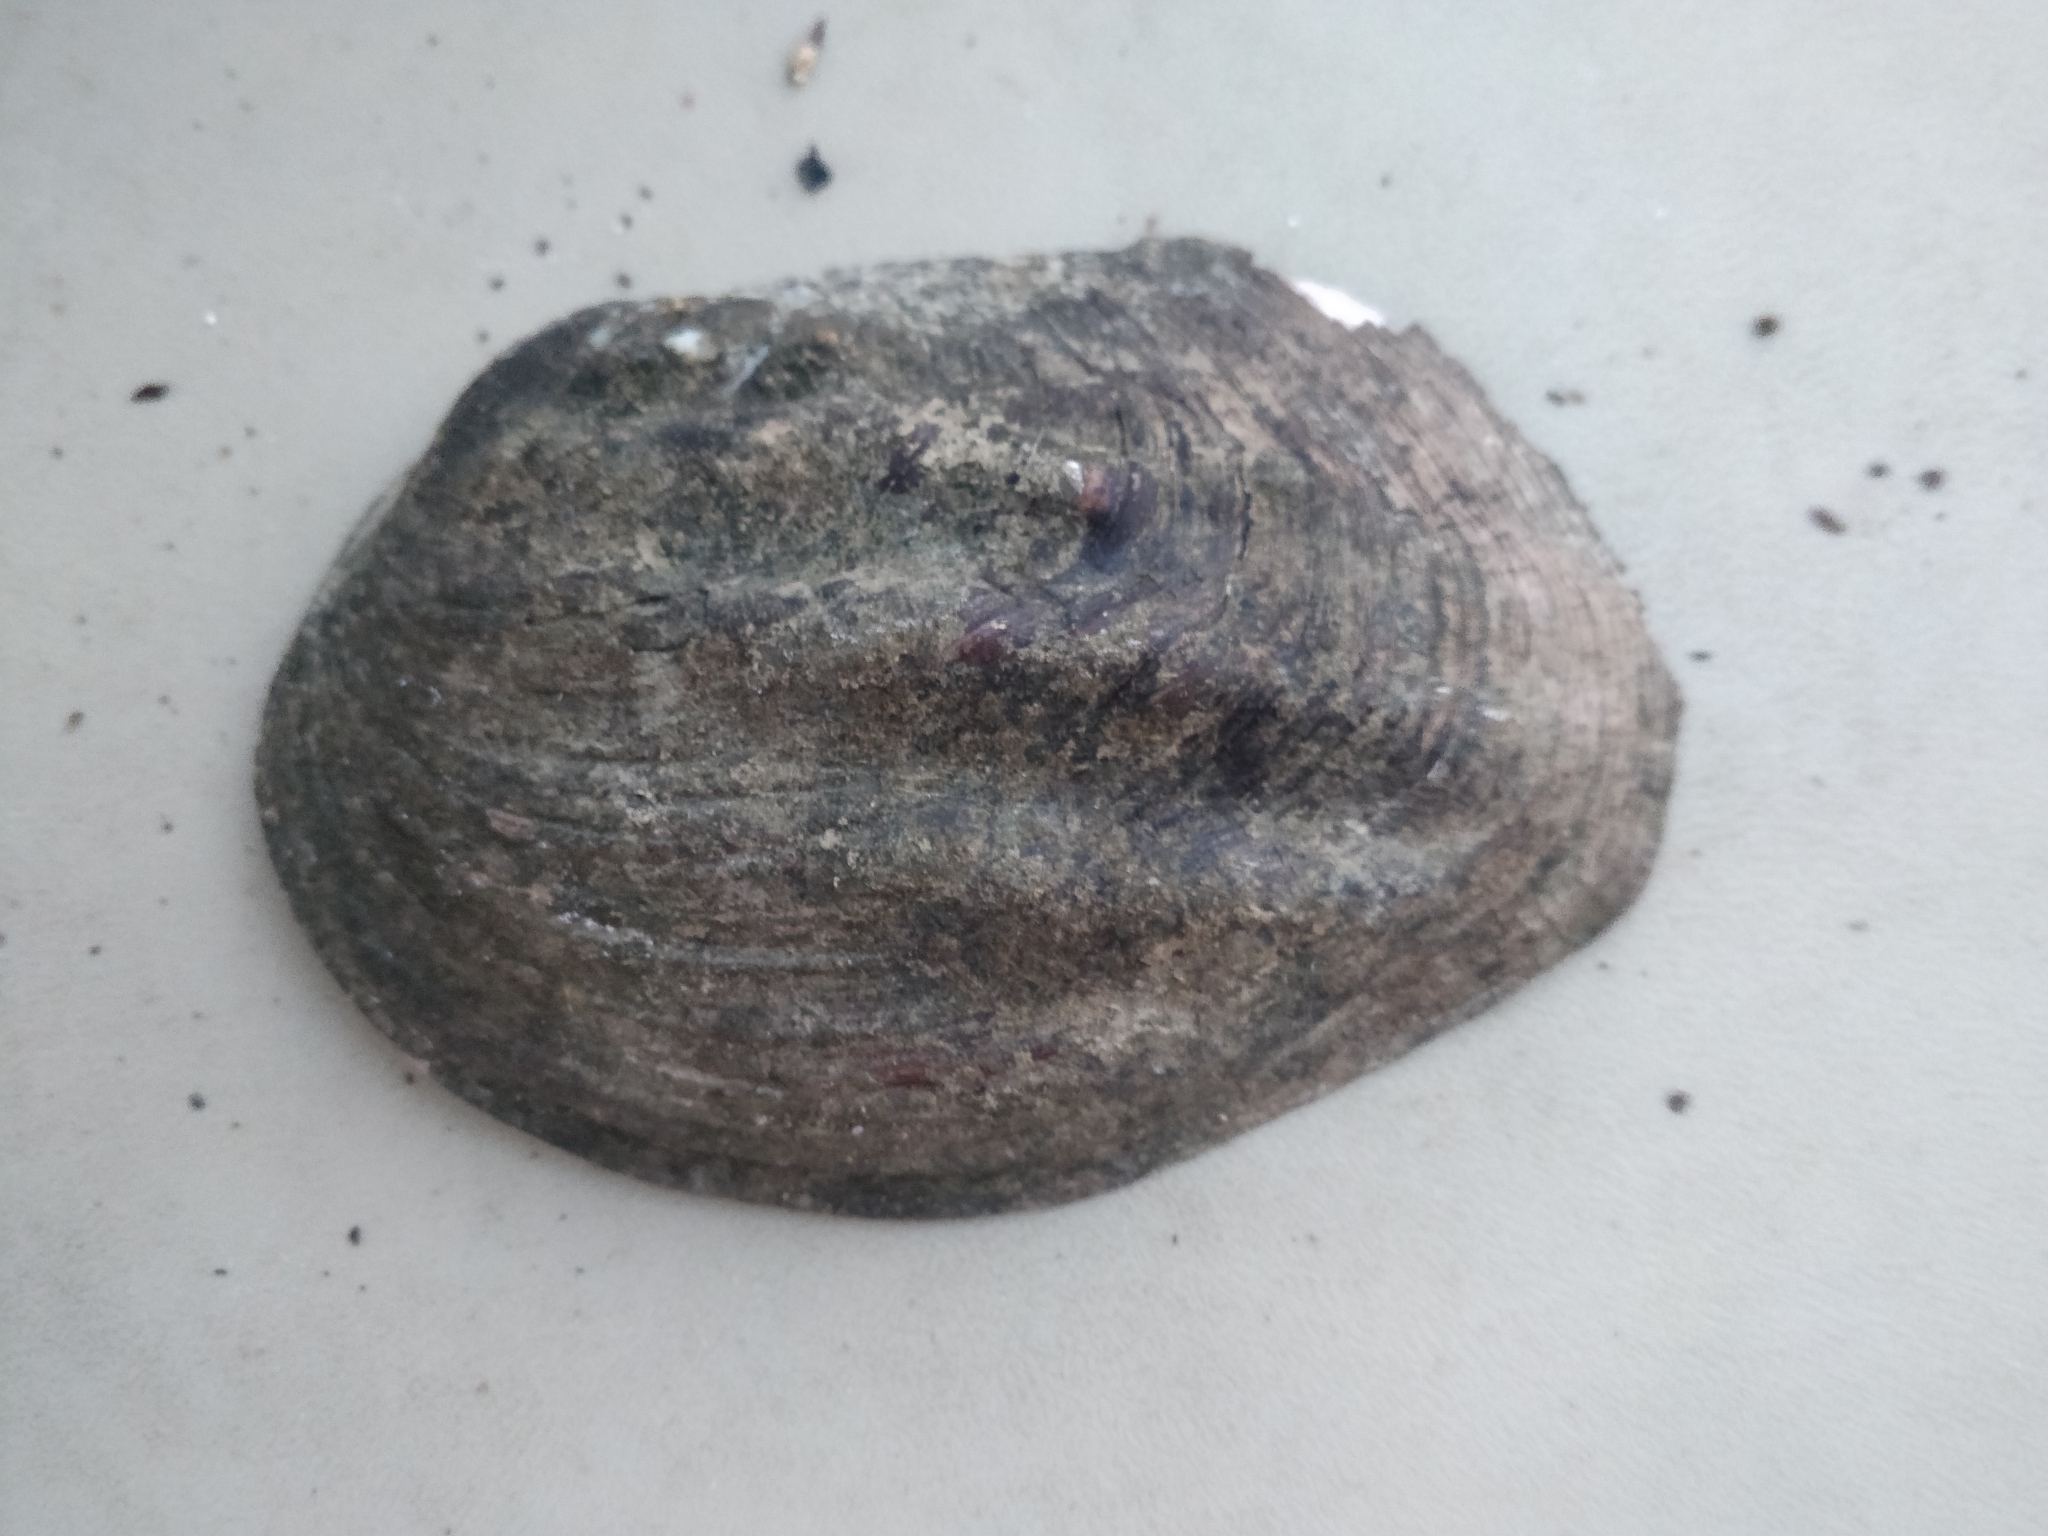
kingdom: Animalia
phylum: Mollusca
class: Bivalvia
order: Unionida
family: Unionidae
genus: Amblema
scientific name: Amblema plicata
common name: Threeridge
